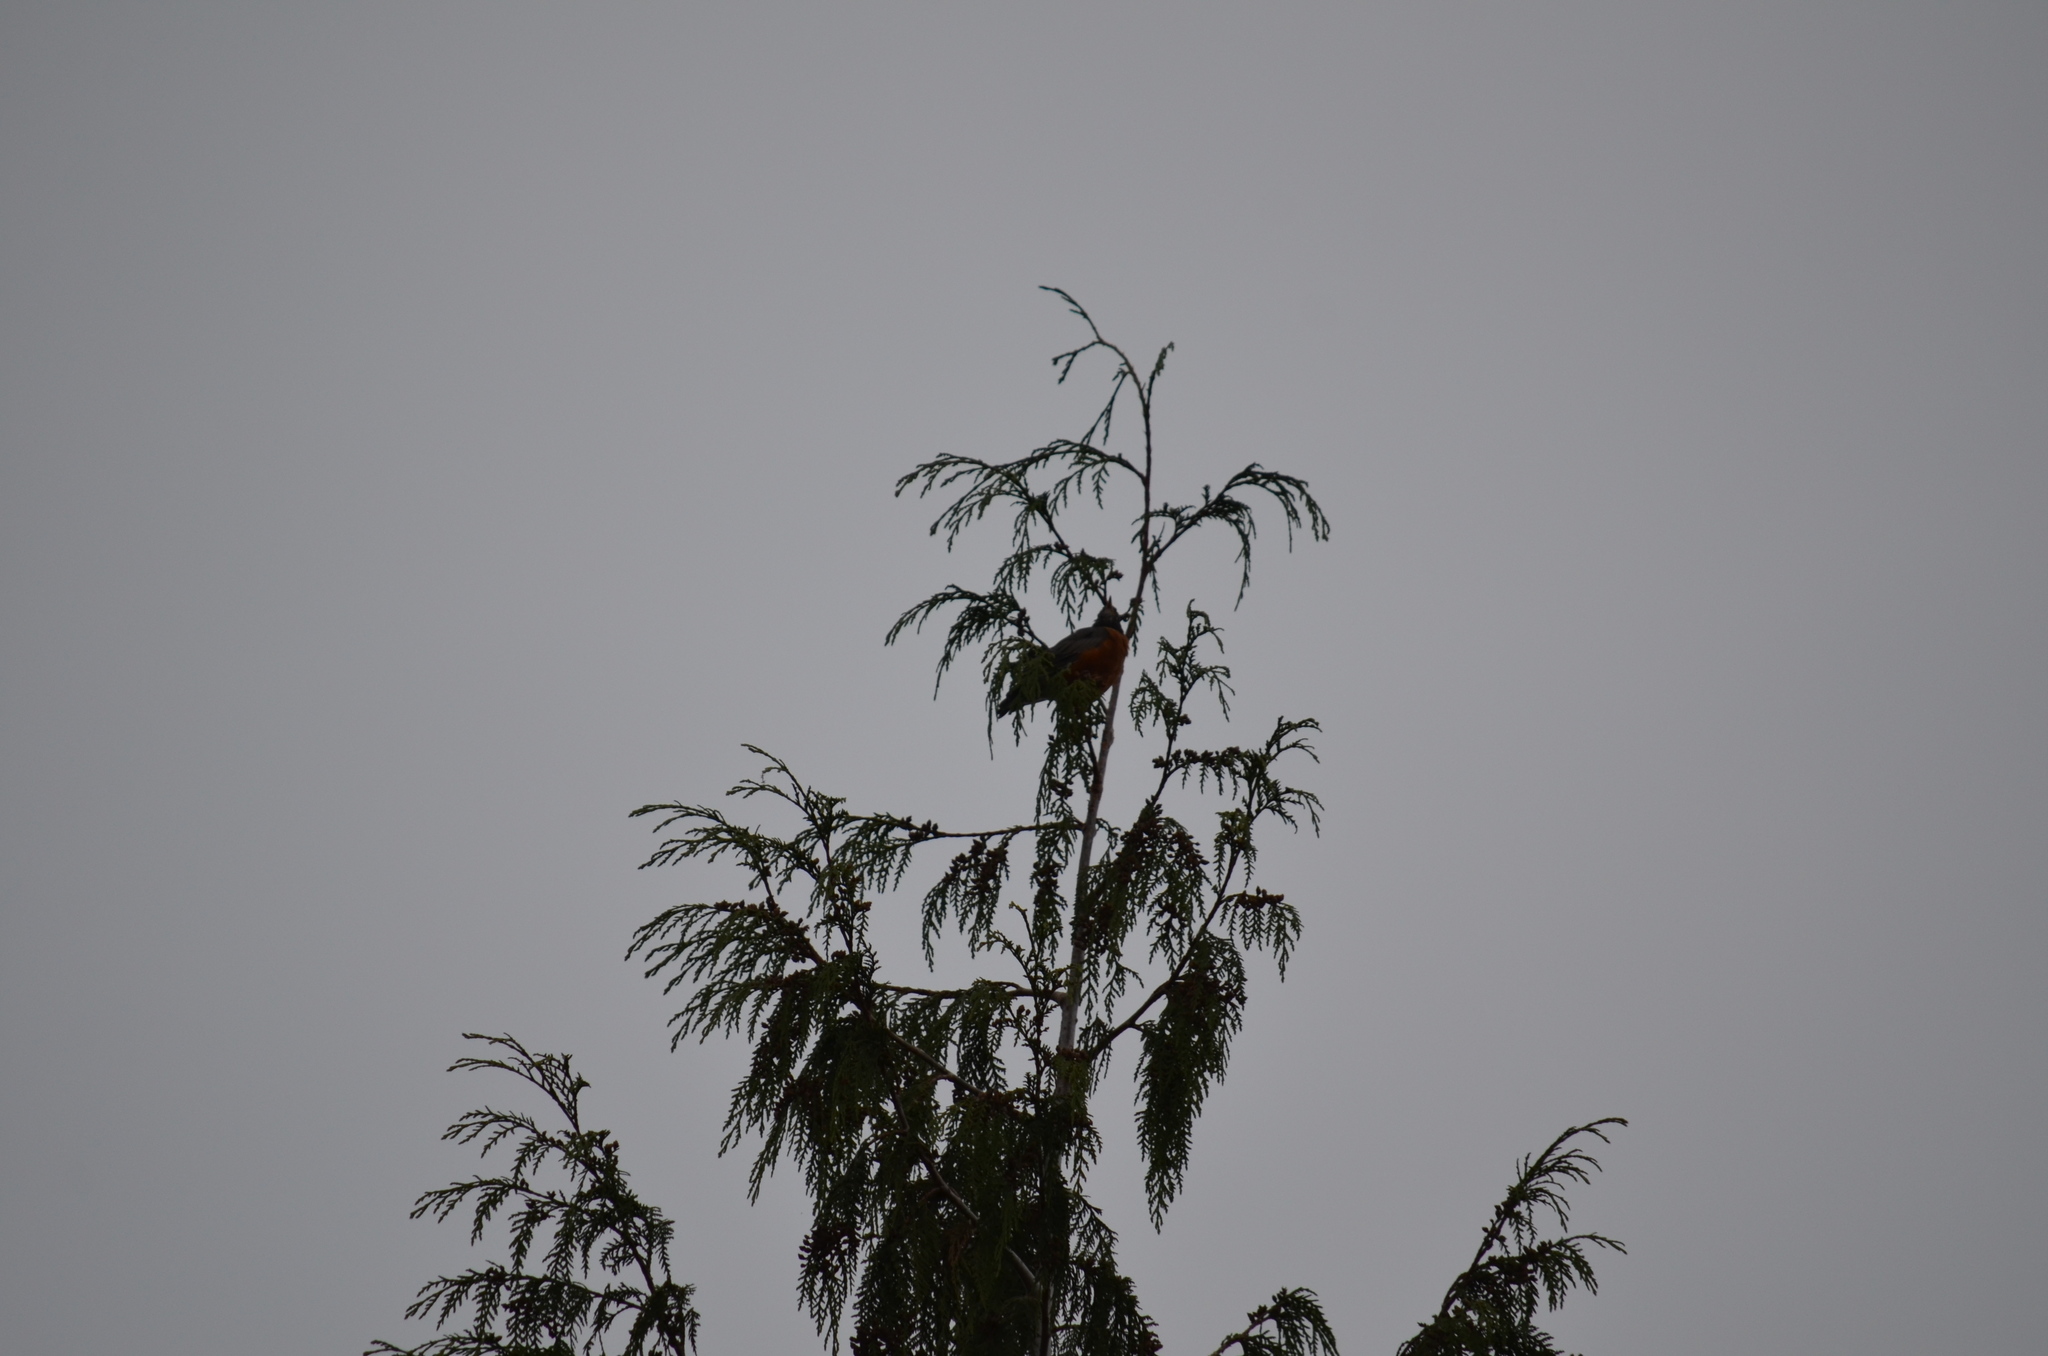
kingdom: Animalia
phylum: Chordata
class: Aves
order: Passeriformes
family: Turdidae
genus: Turdus
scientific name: Turdus migratorius
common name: American robin
